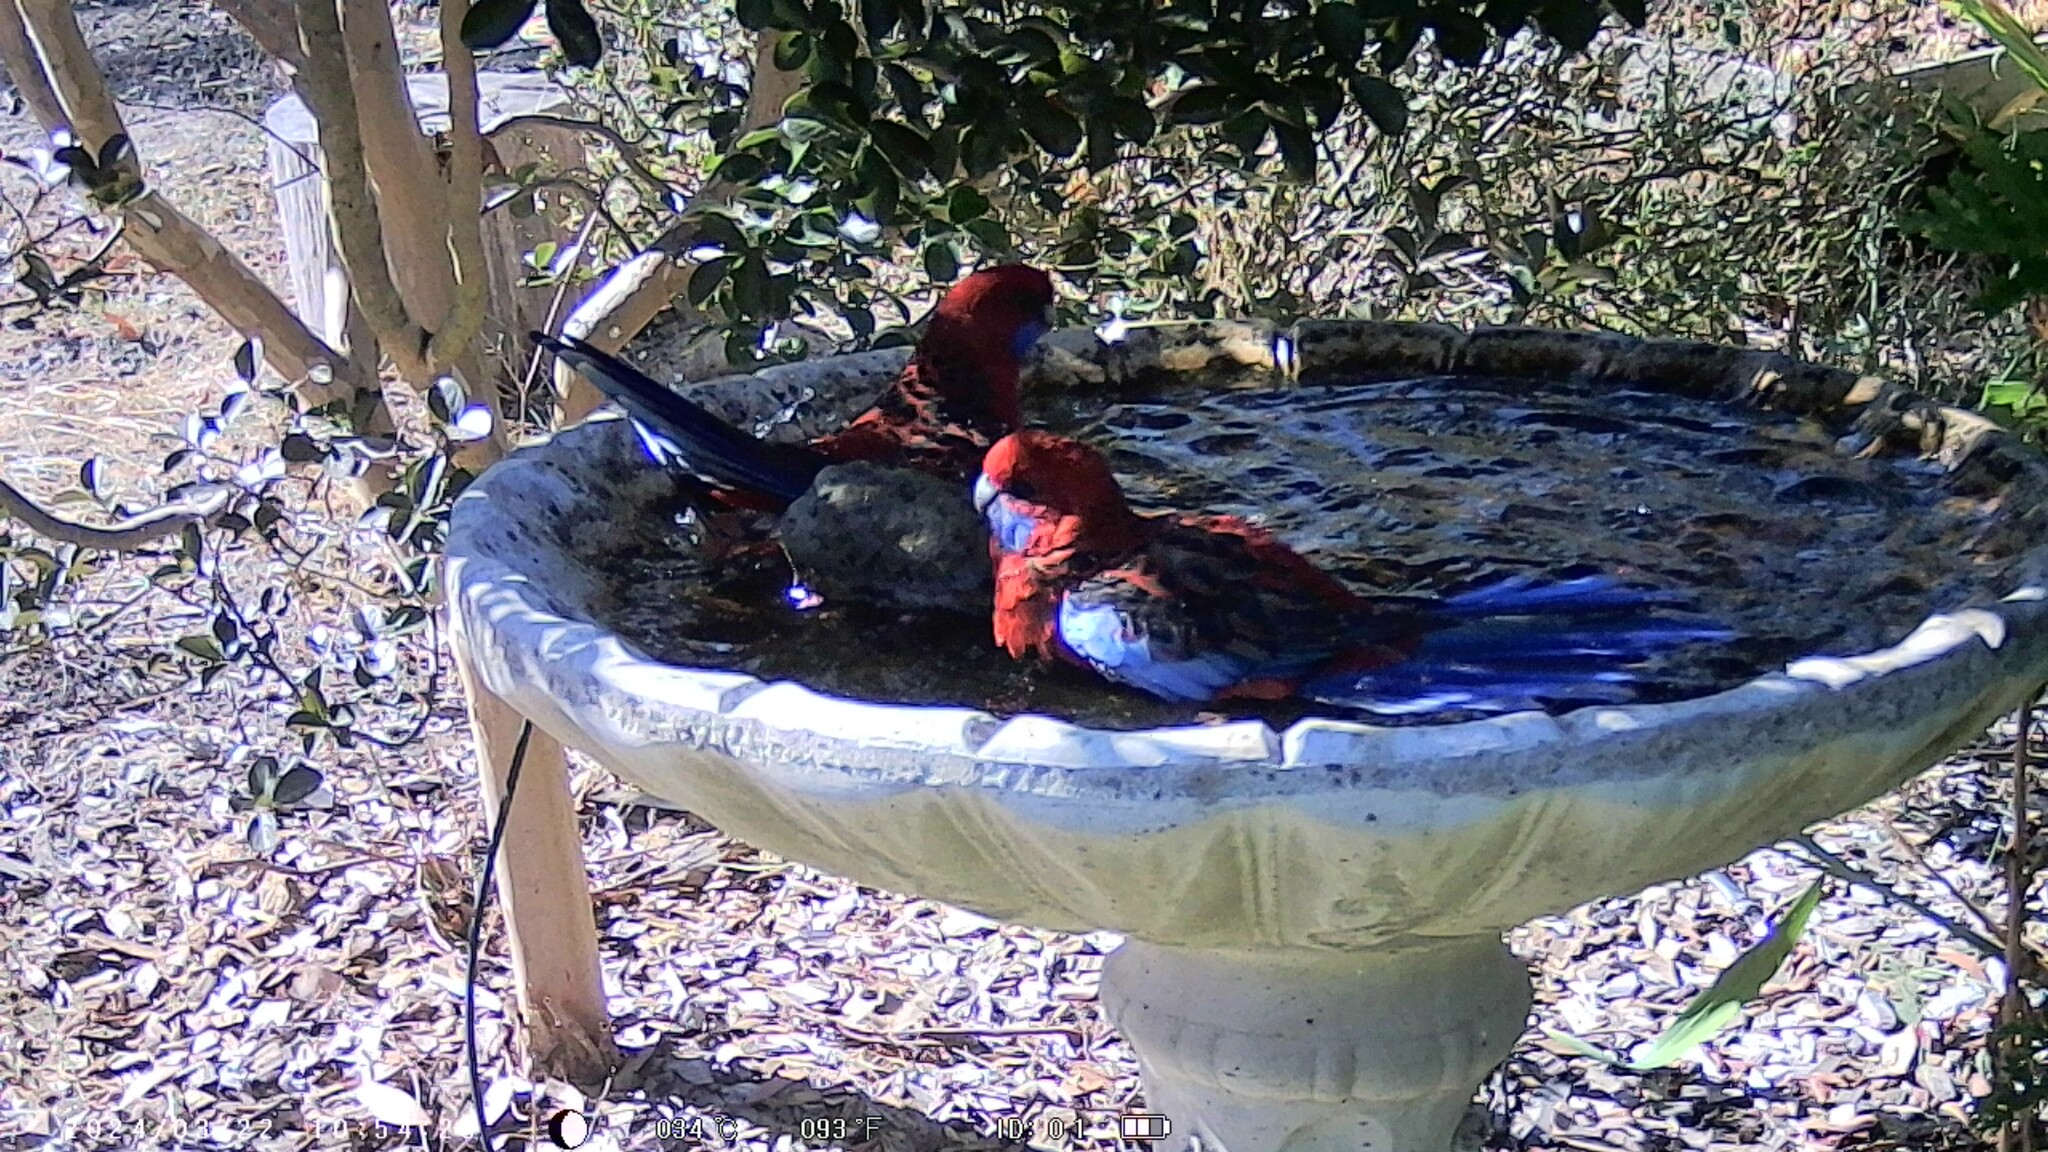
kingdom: Animalia
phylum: Chordata
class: Aves
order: Psittaciformes
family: Psittacidae
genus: Platycercus
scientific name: Platycercus elegans
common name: Crimson rosella
